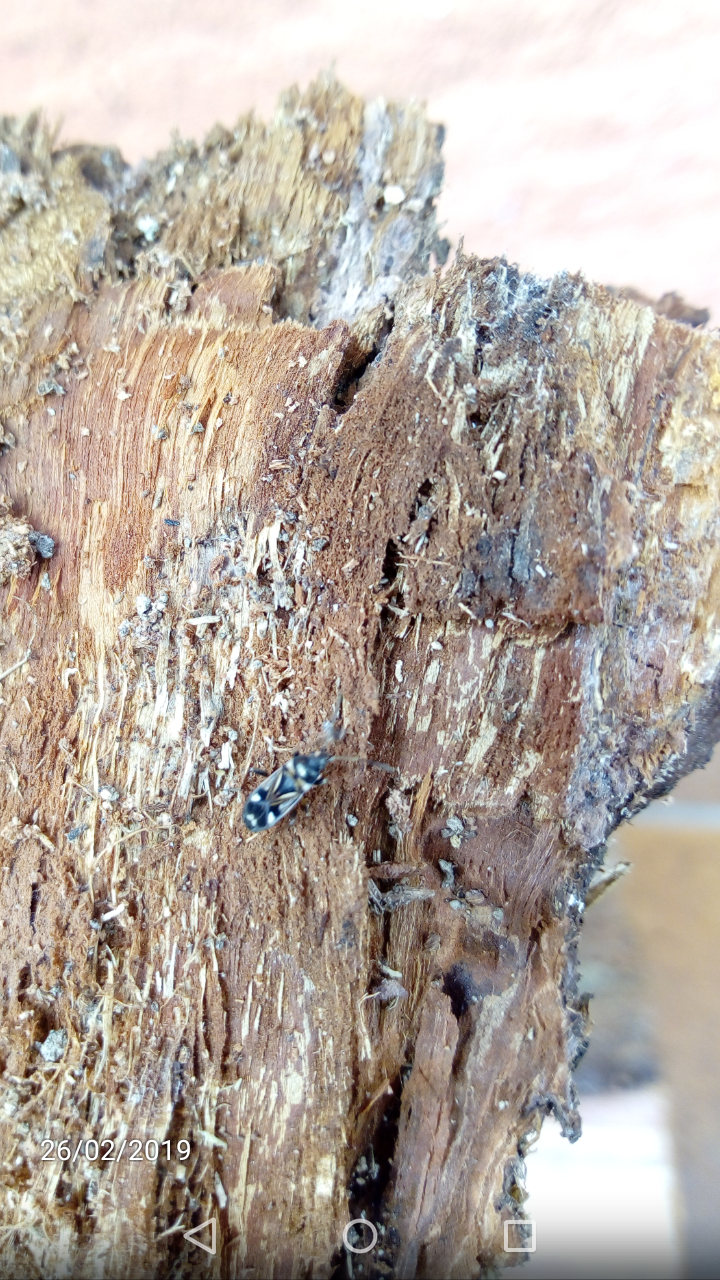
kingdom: Animalia
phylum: Arthropoda
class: Insecta
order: Hemiptera
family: Rhyparochromidae
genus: Raglius
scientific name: Raglius alboacuminatus
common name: Dirt-colored seed bug
